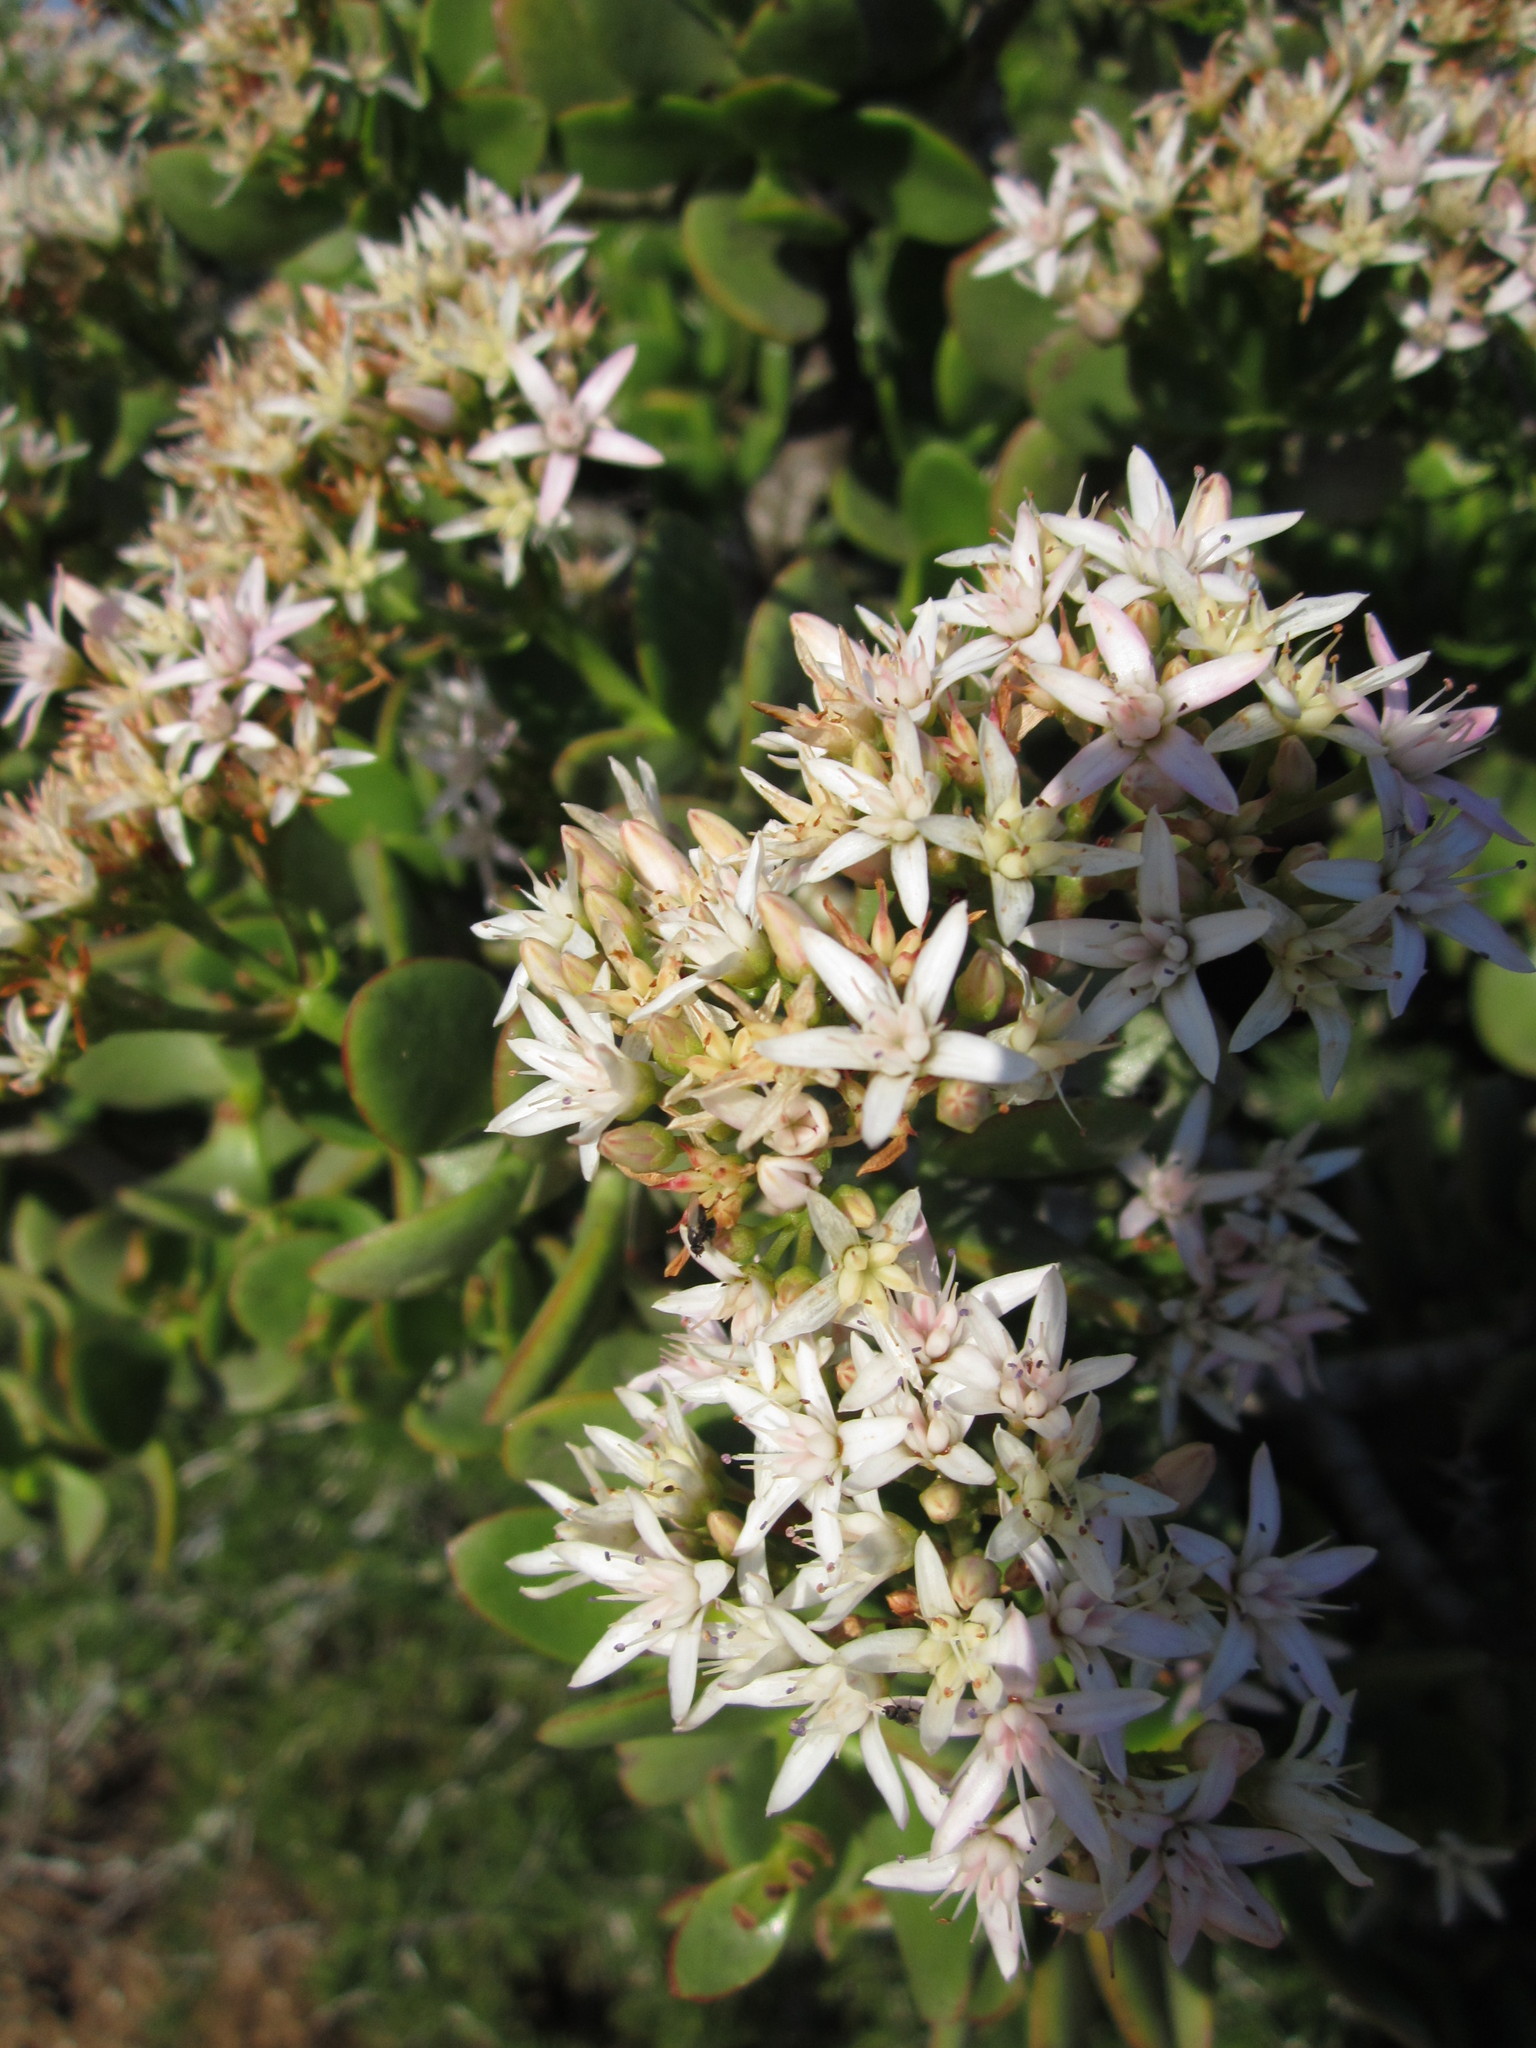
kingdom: Plantae
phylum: Tracheophyta
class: Magnoliopsida
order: Saxifragales
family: Crassulaceae
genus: Crassula
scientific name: Crassula ovata
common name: Jade plant
